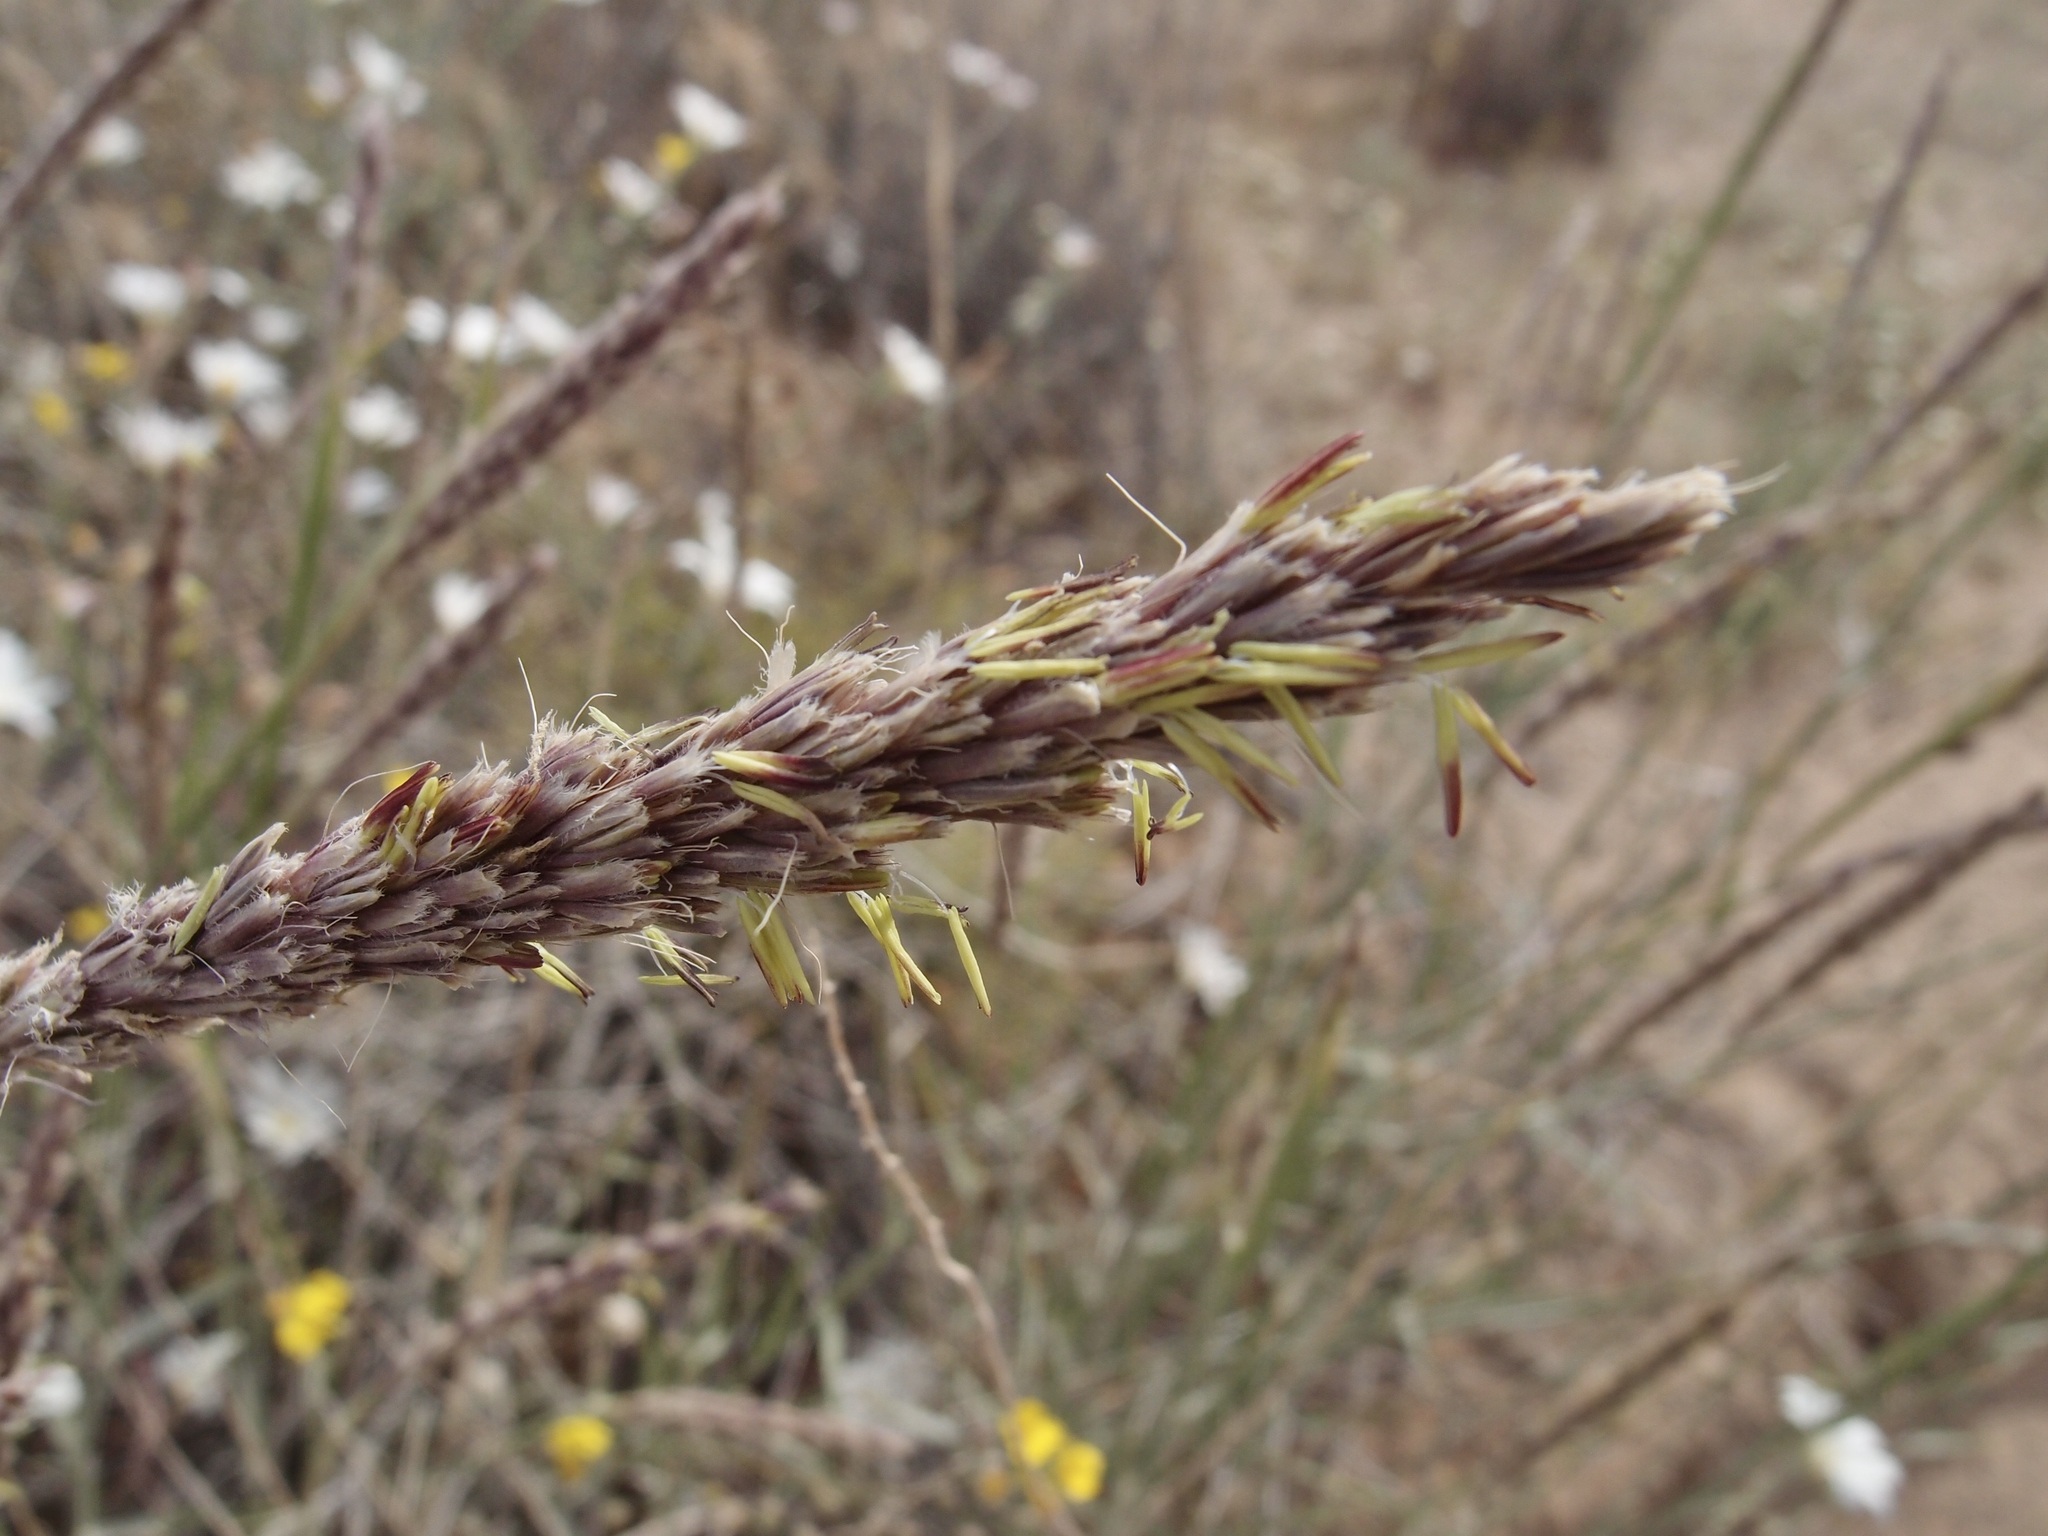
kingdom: Plantae
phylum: Tracheophyta
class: Liliopsida
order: Poales
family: Poaceae
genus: Hilaria
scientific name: Hilaria rigida
